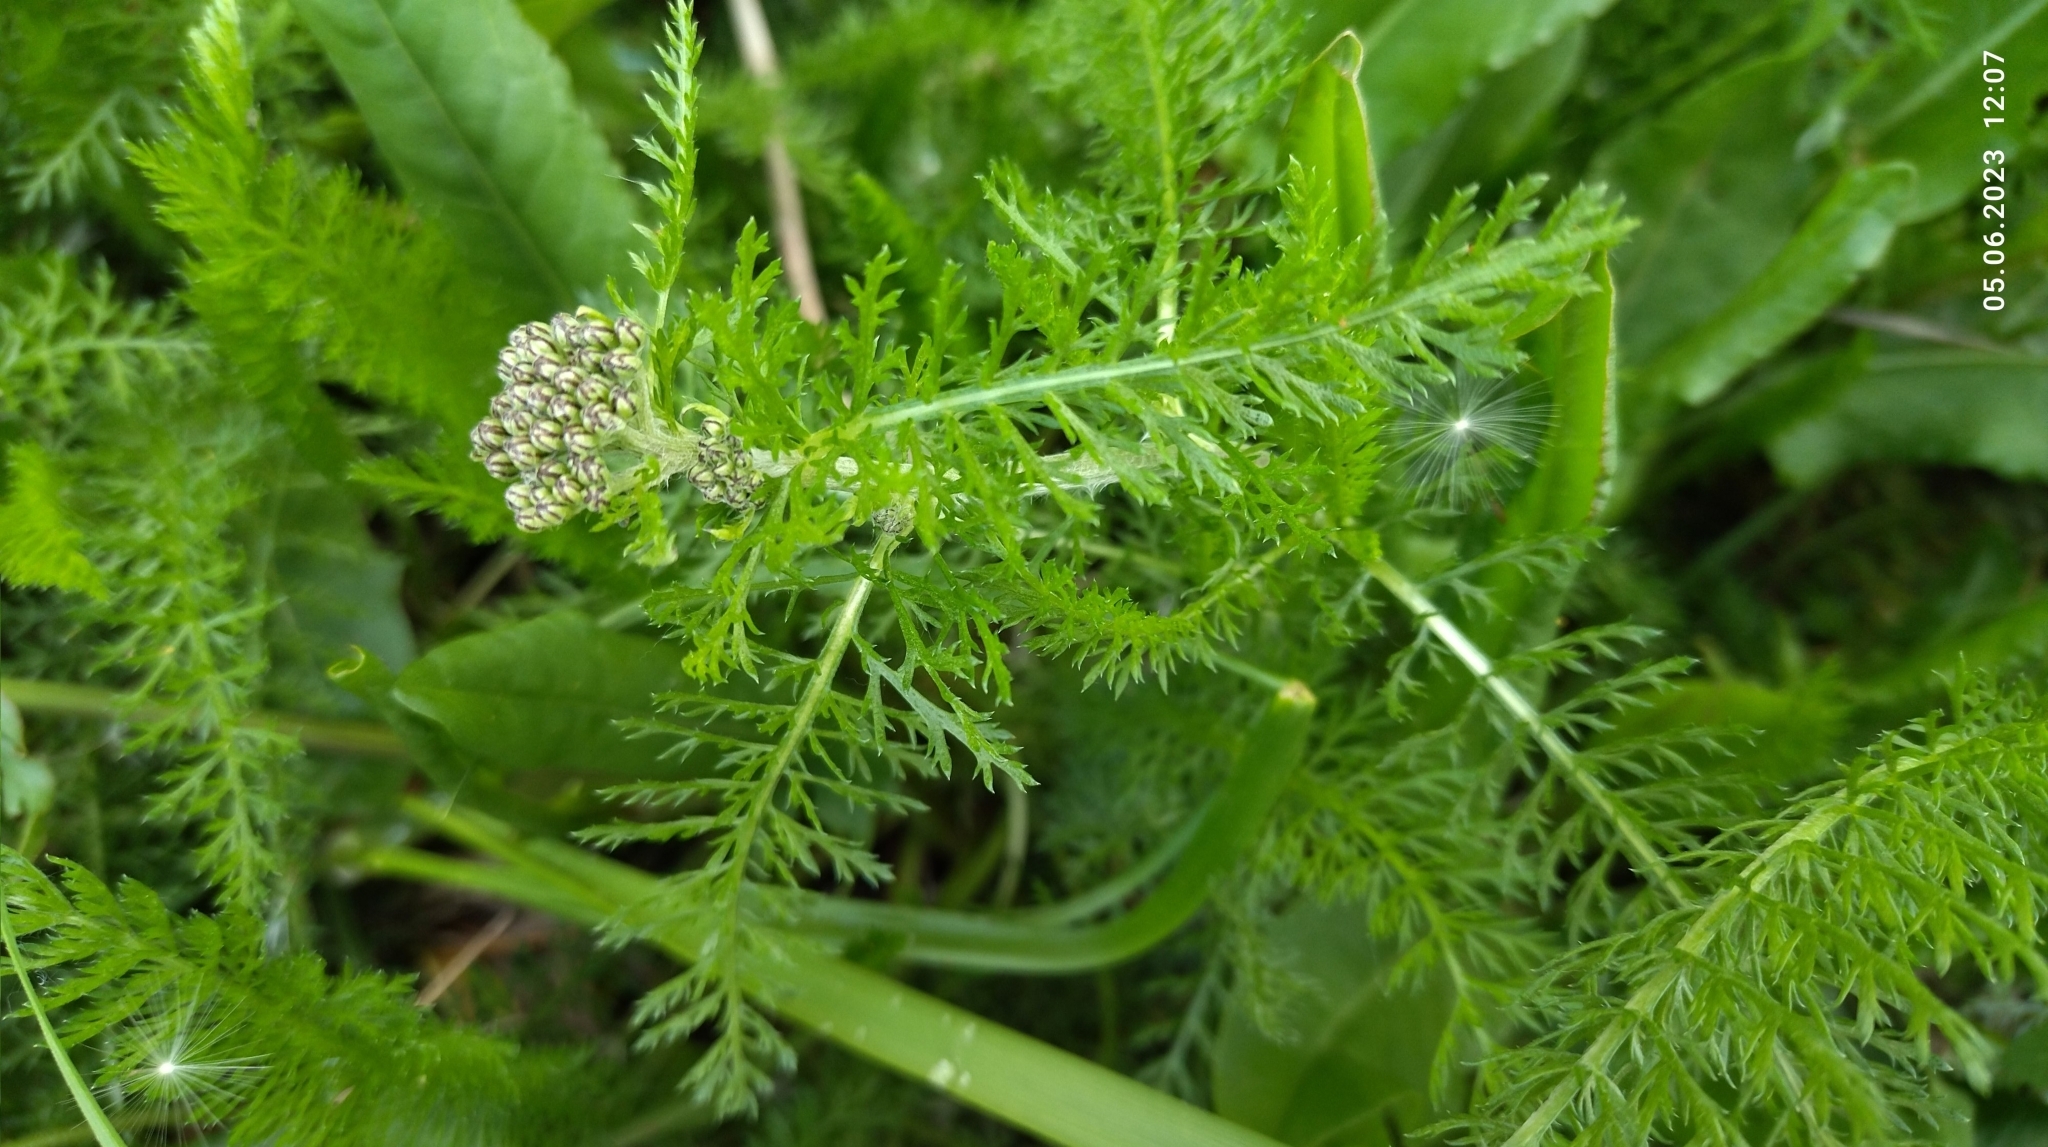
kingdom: Plantae
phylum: Tracheophyta
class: Magnoliopsida
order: Asterales
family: Asteraceae
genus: Achillea
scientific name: Achillea millefolium
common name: Yarrow
